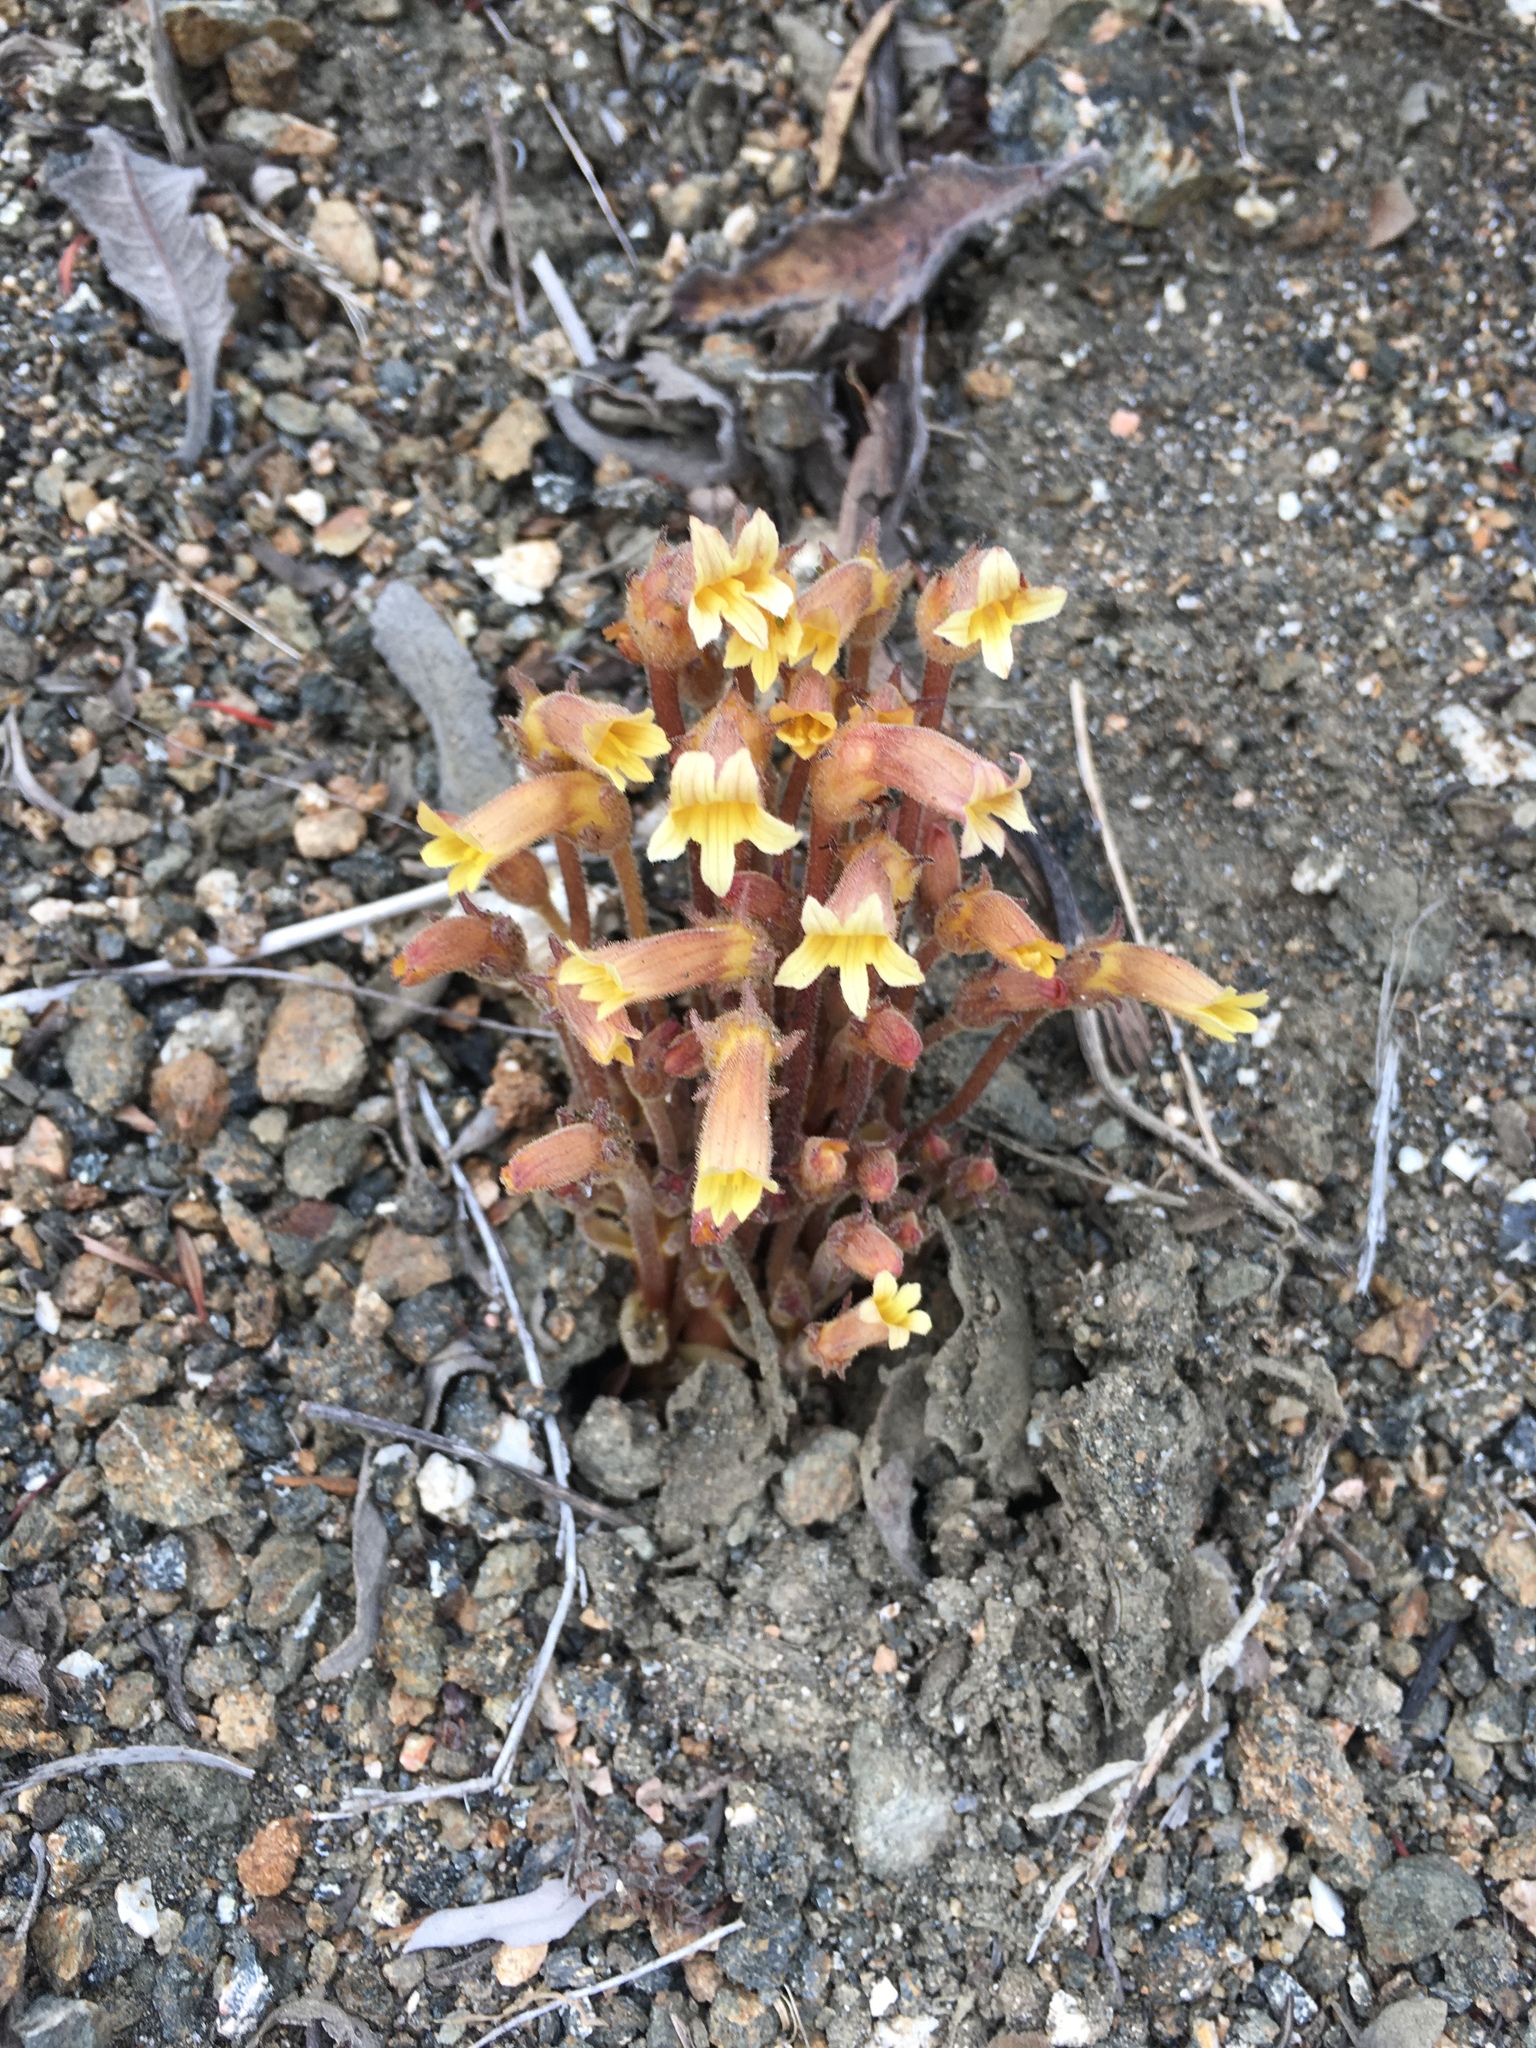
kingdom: Plantae
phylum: Tracheophyta
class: Magnoliopsida
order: Lamiales
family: Orobanchaceae
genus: Aphyllon
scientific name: Aphyllon franciscanum
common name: San francisco broomrape
